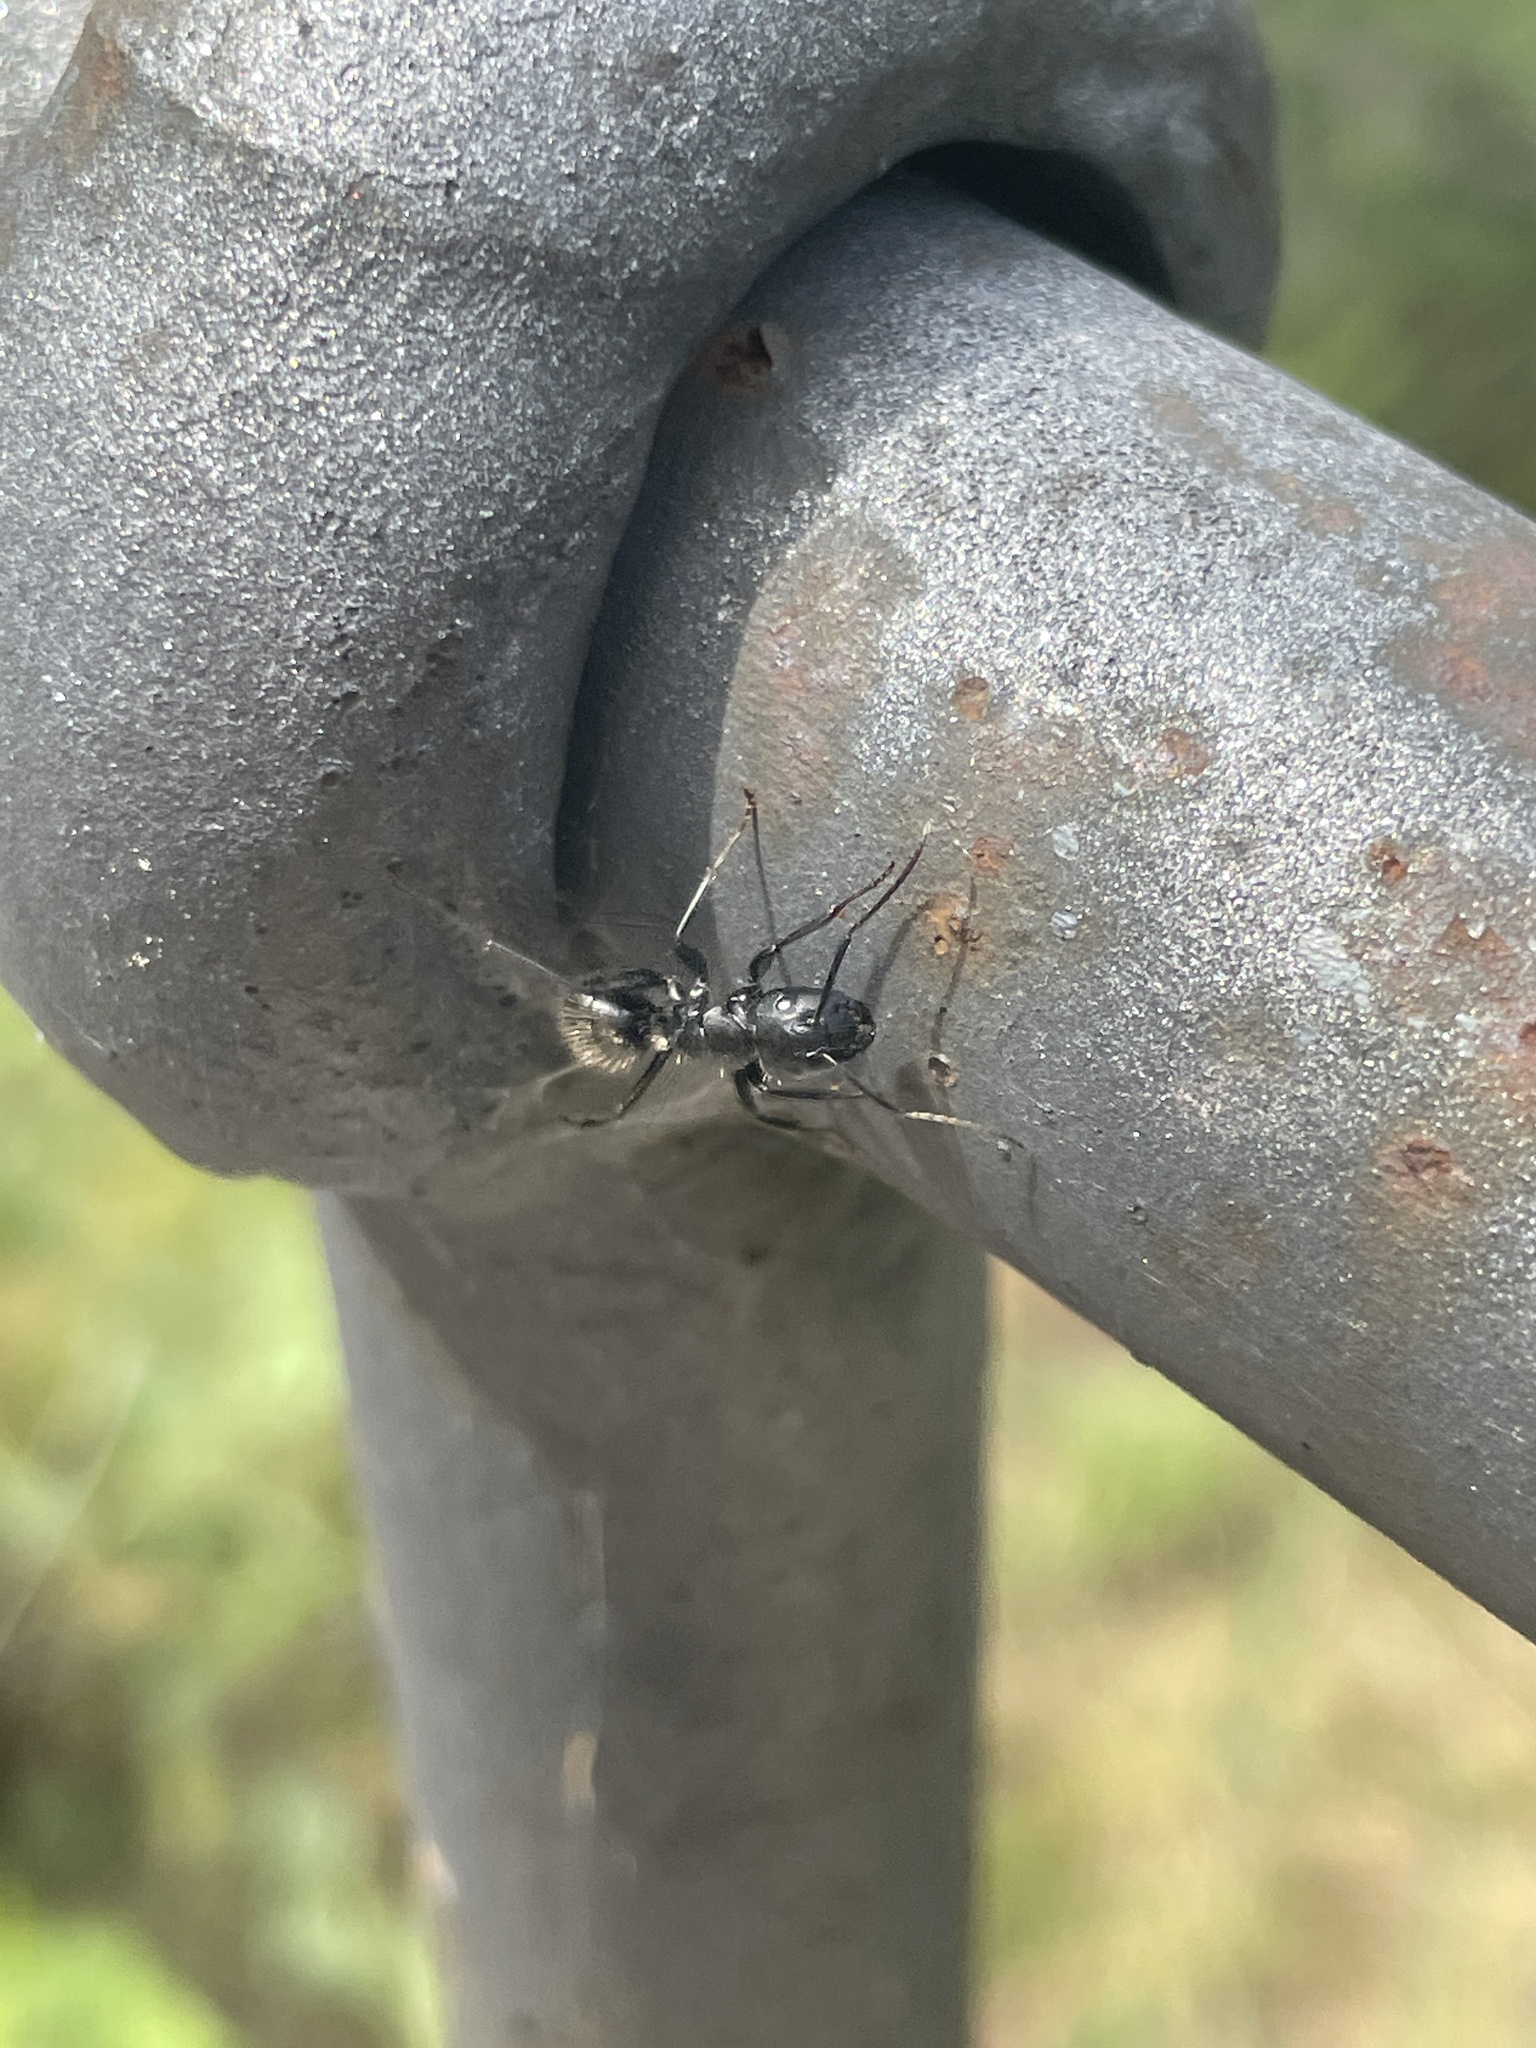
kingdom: Animalia
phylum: Arthropoda
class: Insecta
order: Hymenoptera
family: Formicidae
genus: Camponotus
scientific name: Camponotus vagus
